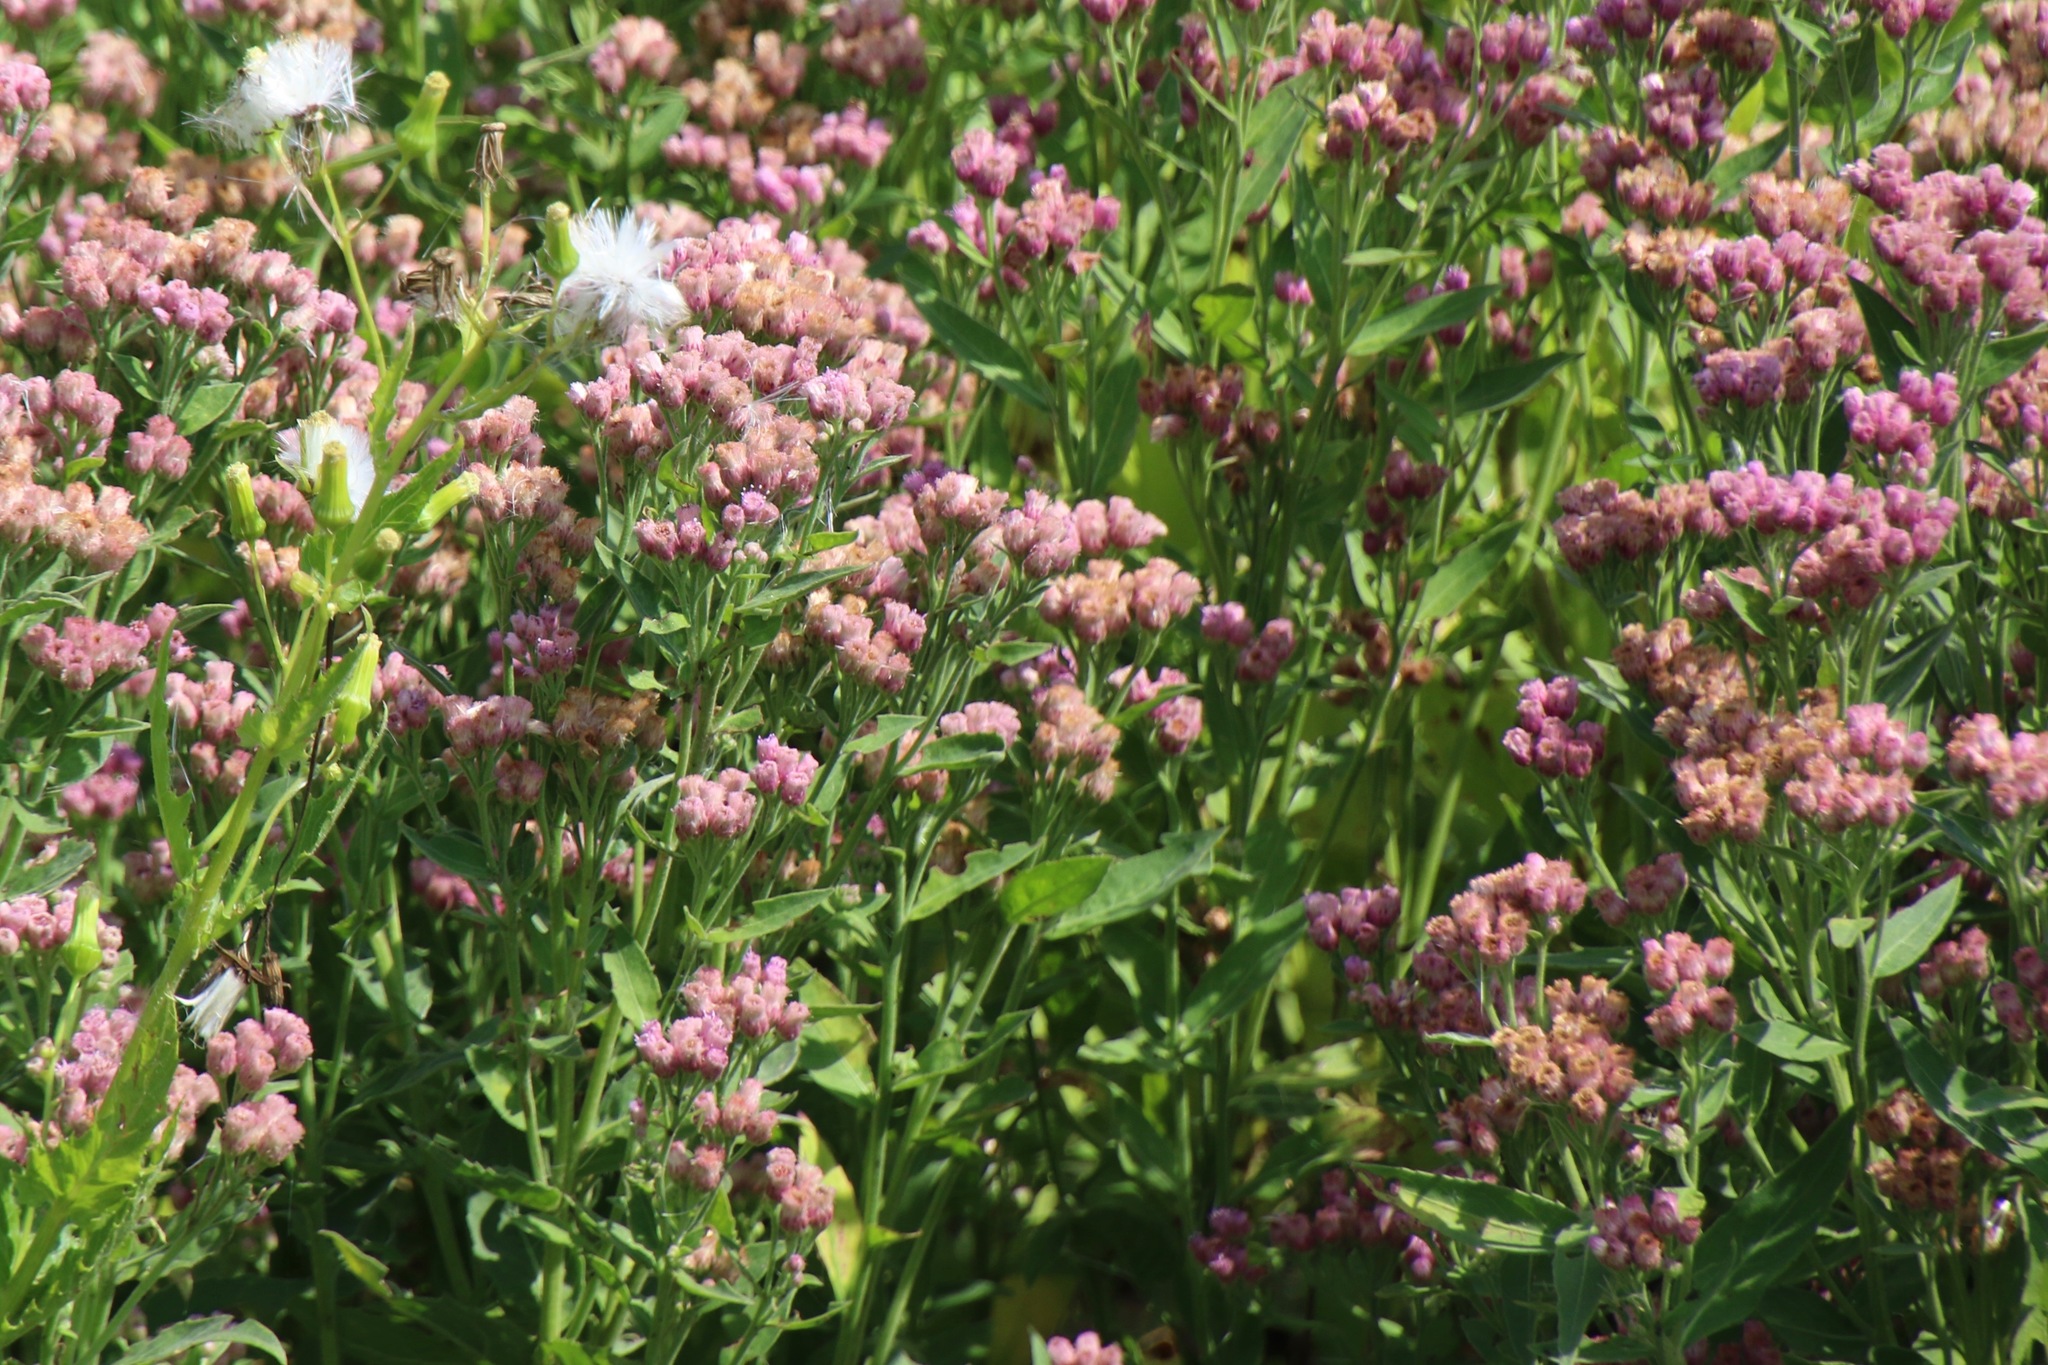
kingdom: Plantae
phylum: Tracheophyta
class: Magnoliopsida
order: Asterales
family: Asteraceae
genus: Pluchea
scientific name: Pluchea odorata
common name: Saltmarsh fleabane
